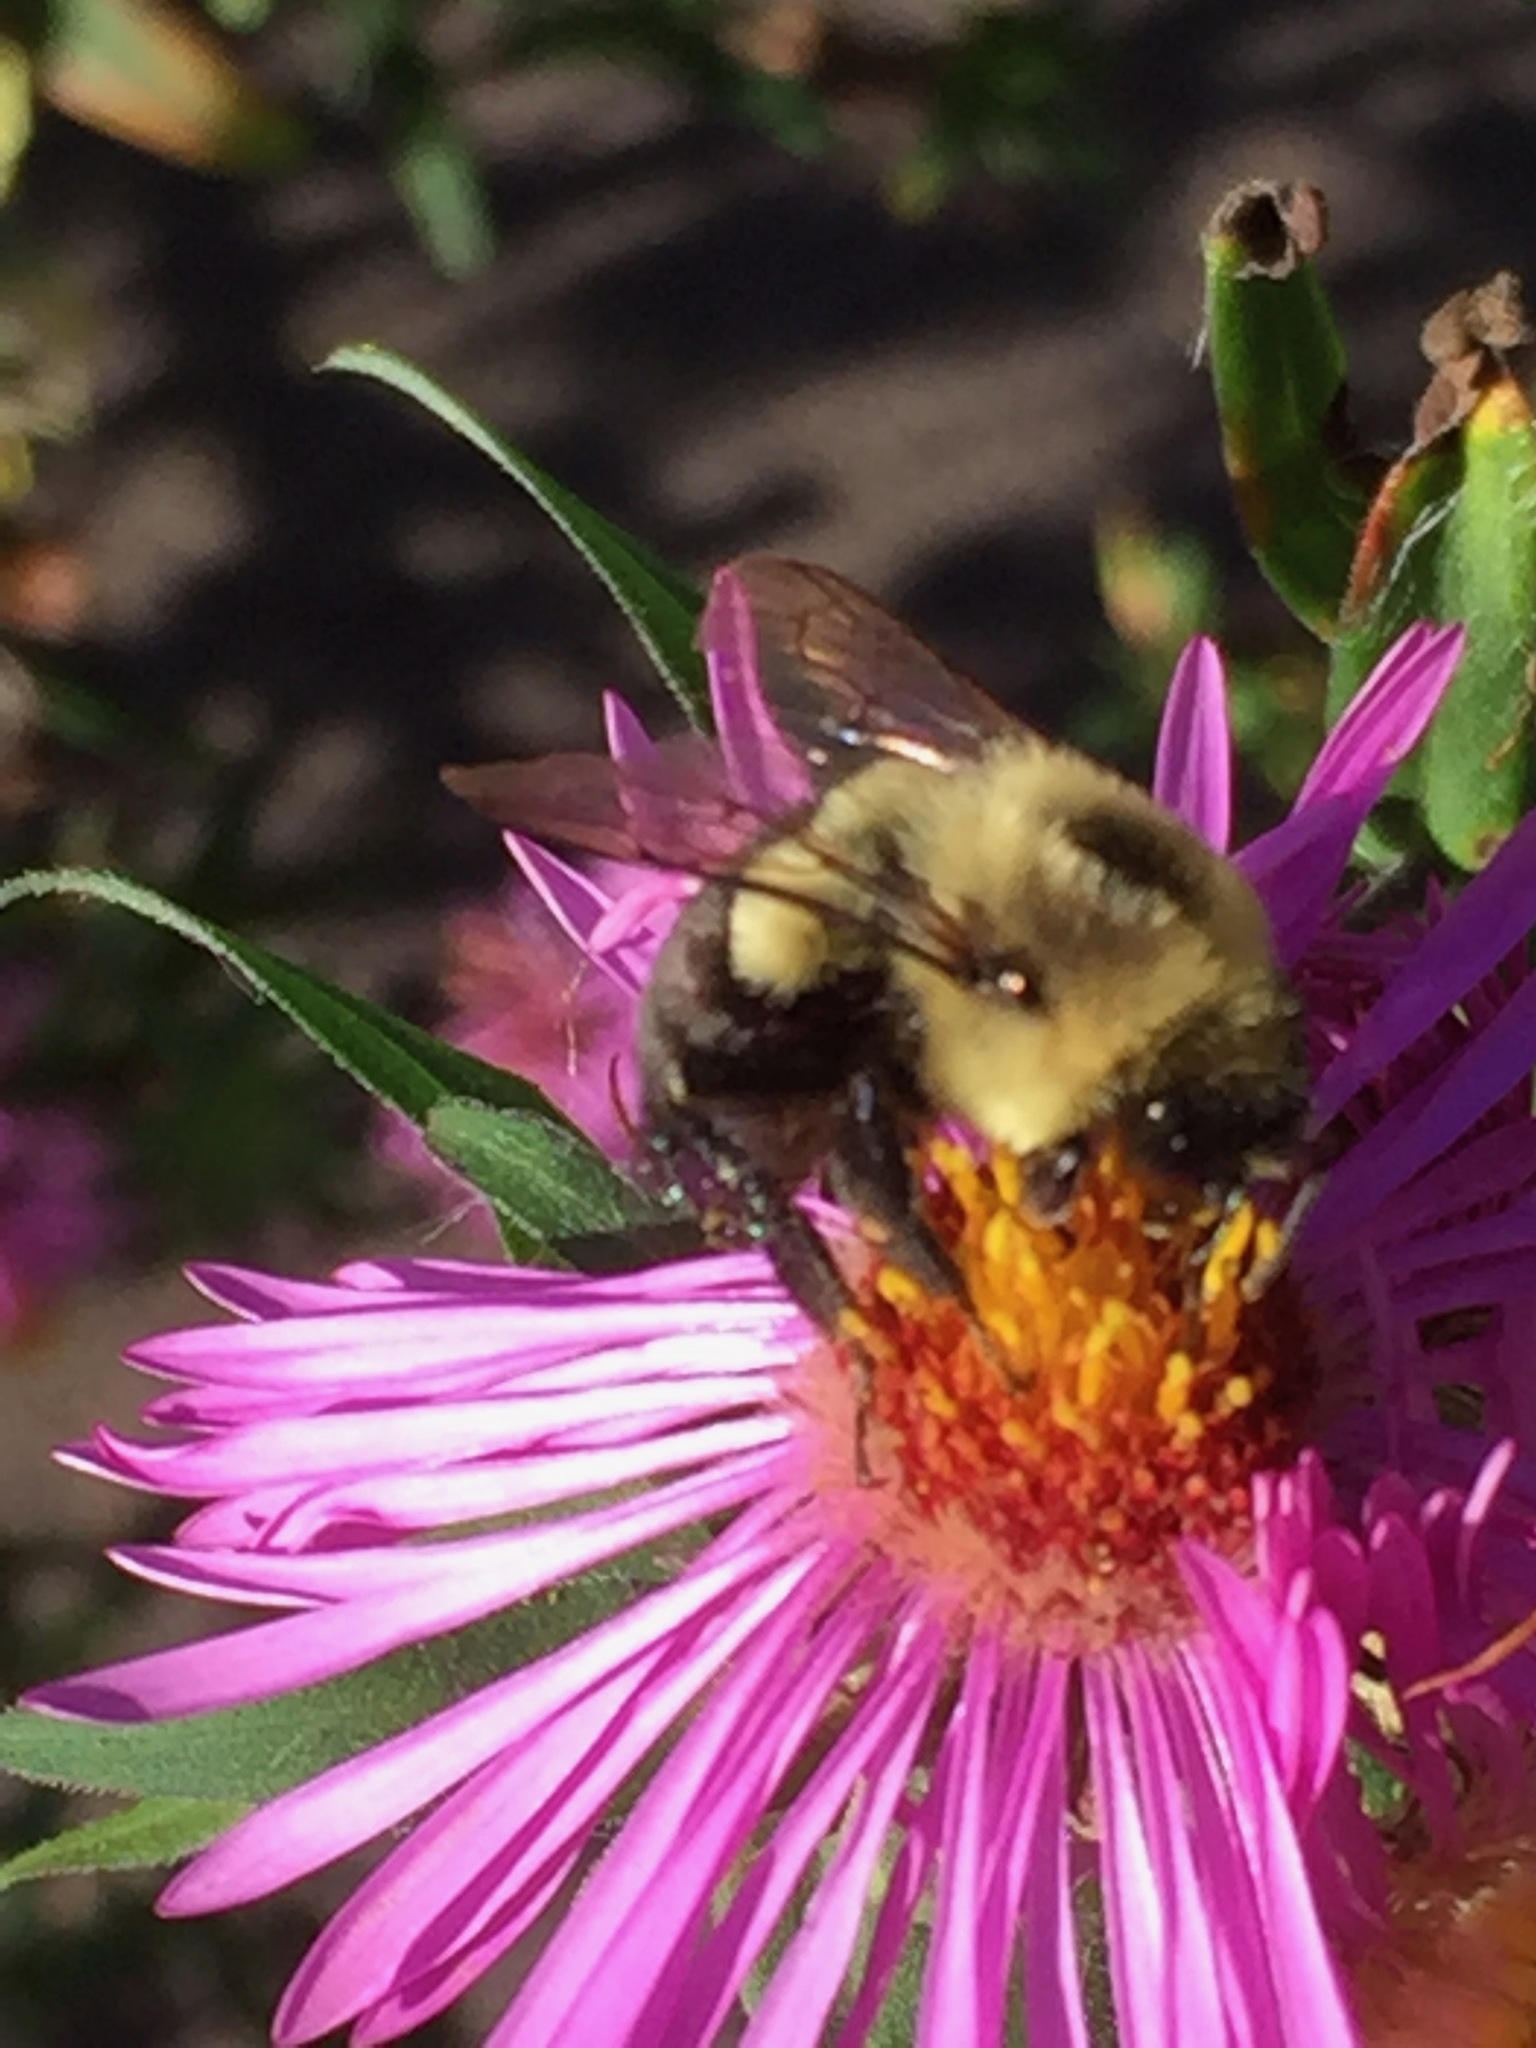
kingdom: Animalia
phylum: Arthropoda
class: Insecta
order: Hymenoptera
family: Apidae
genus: Bombus
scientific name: Bombus impatiens
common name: Common eastern bumble bee
